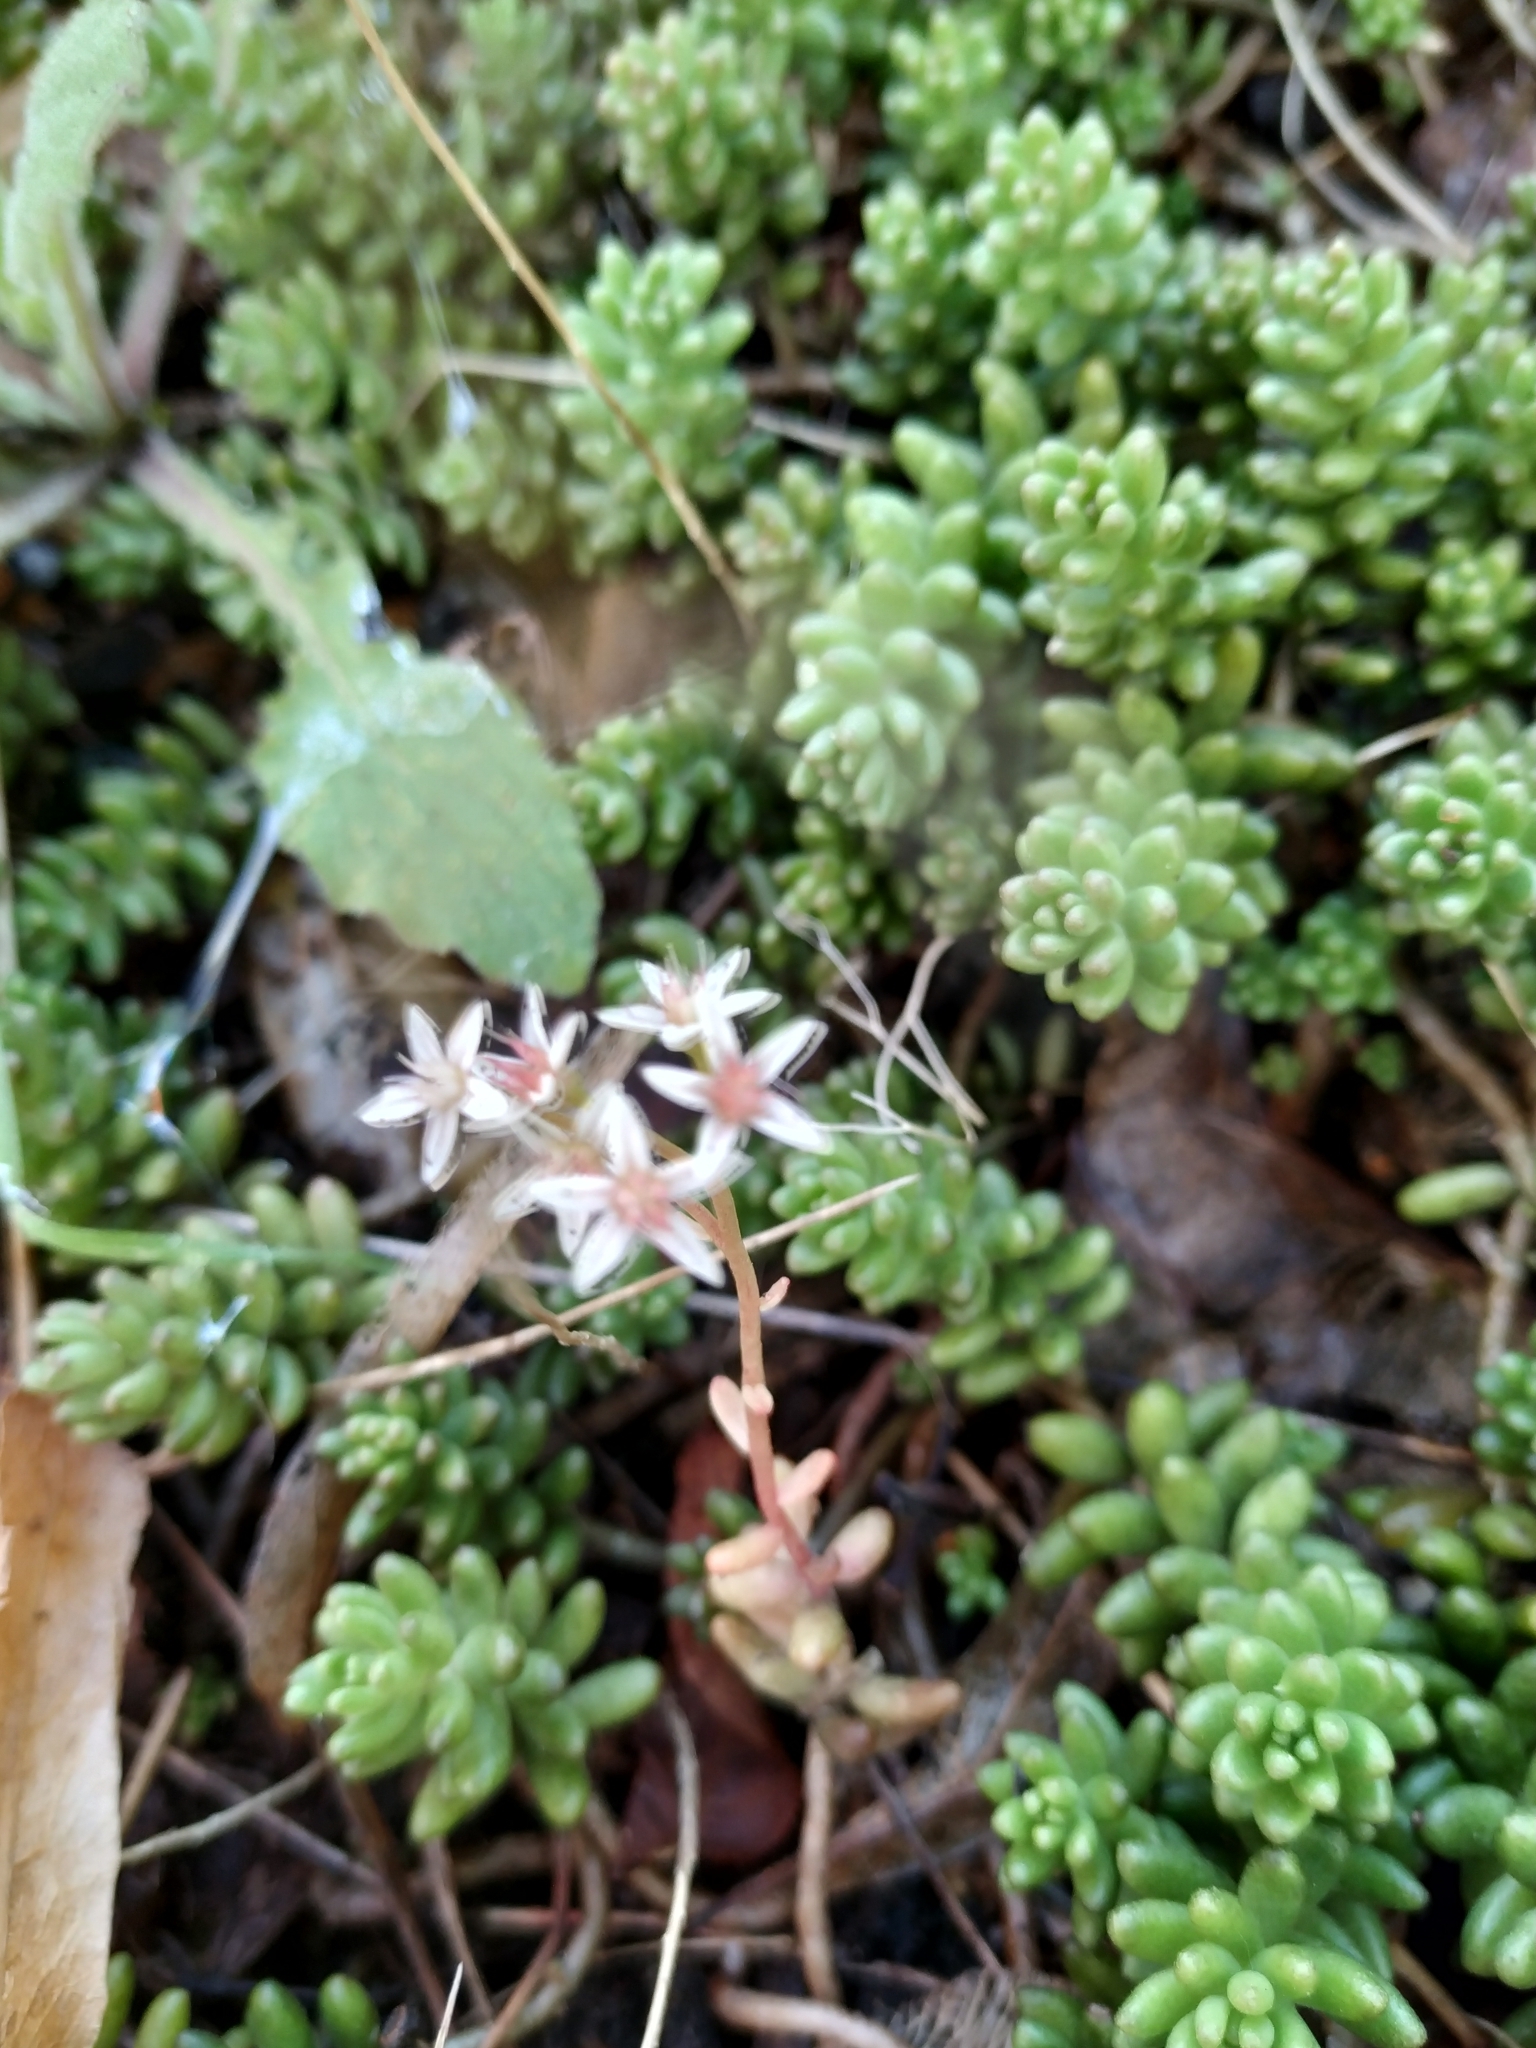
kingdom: Plantae
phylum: Tracheophyta
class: Magnoliopsida
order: Saxifragales
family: Crassulaceae
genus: Sedum
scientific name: Sedum album
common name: White stonecrop
